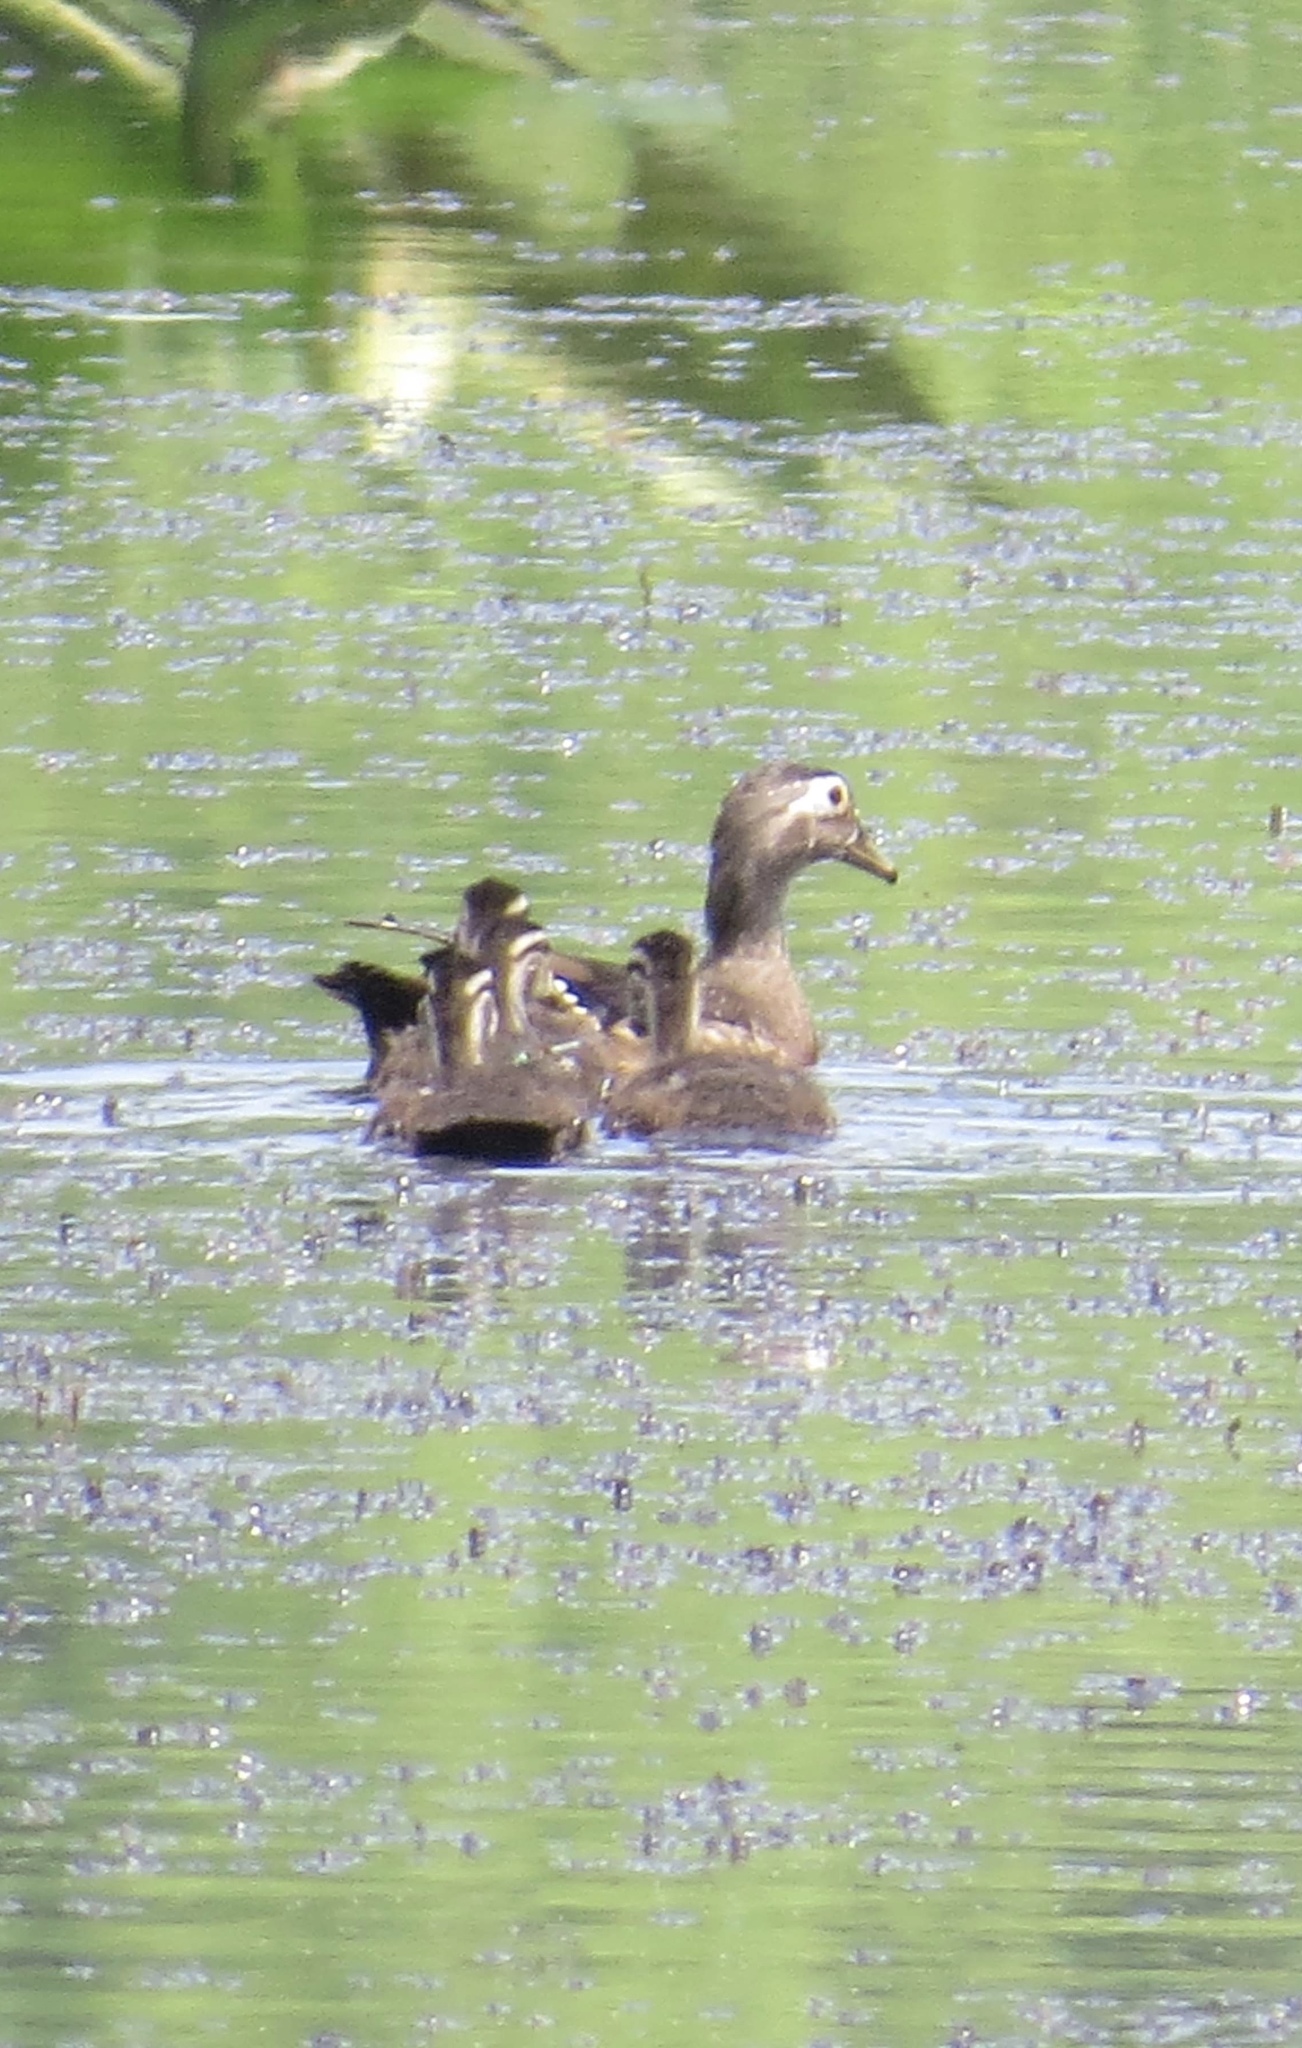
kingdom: Animalia
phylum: Chordata
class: Aves
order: Anseriformes
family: Anatidae
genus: Aix
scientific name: Aix sponsa
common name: Wood duck
